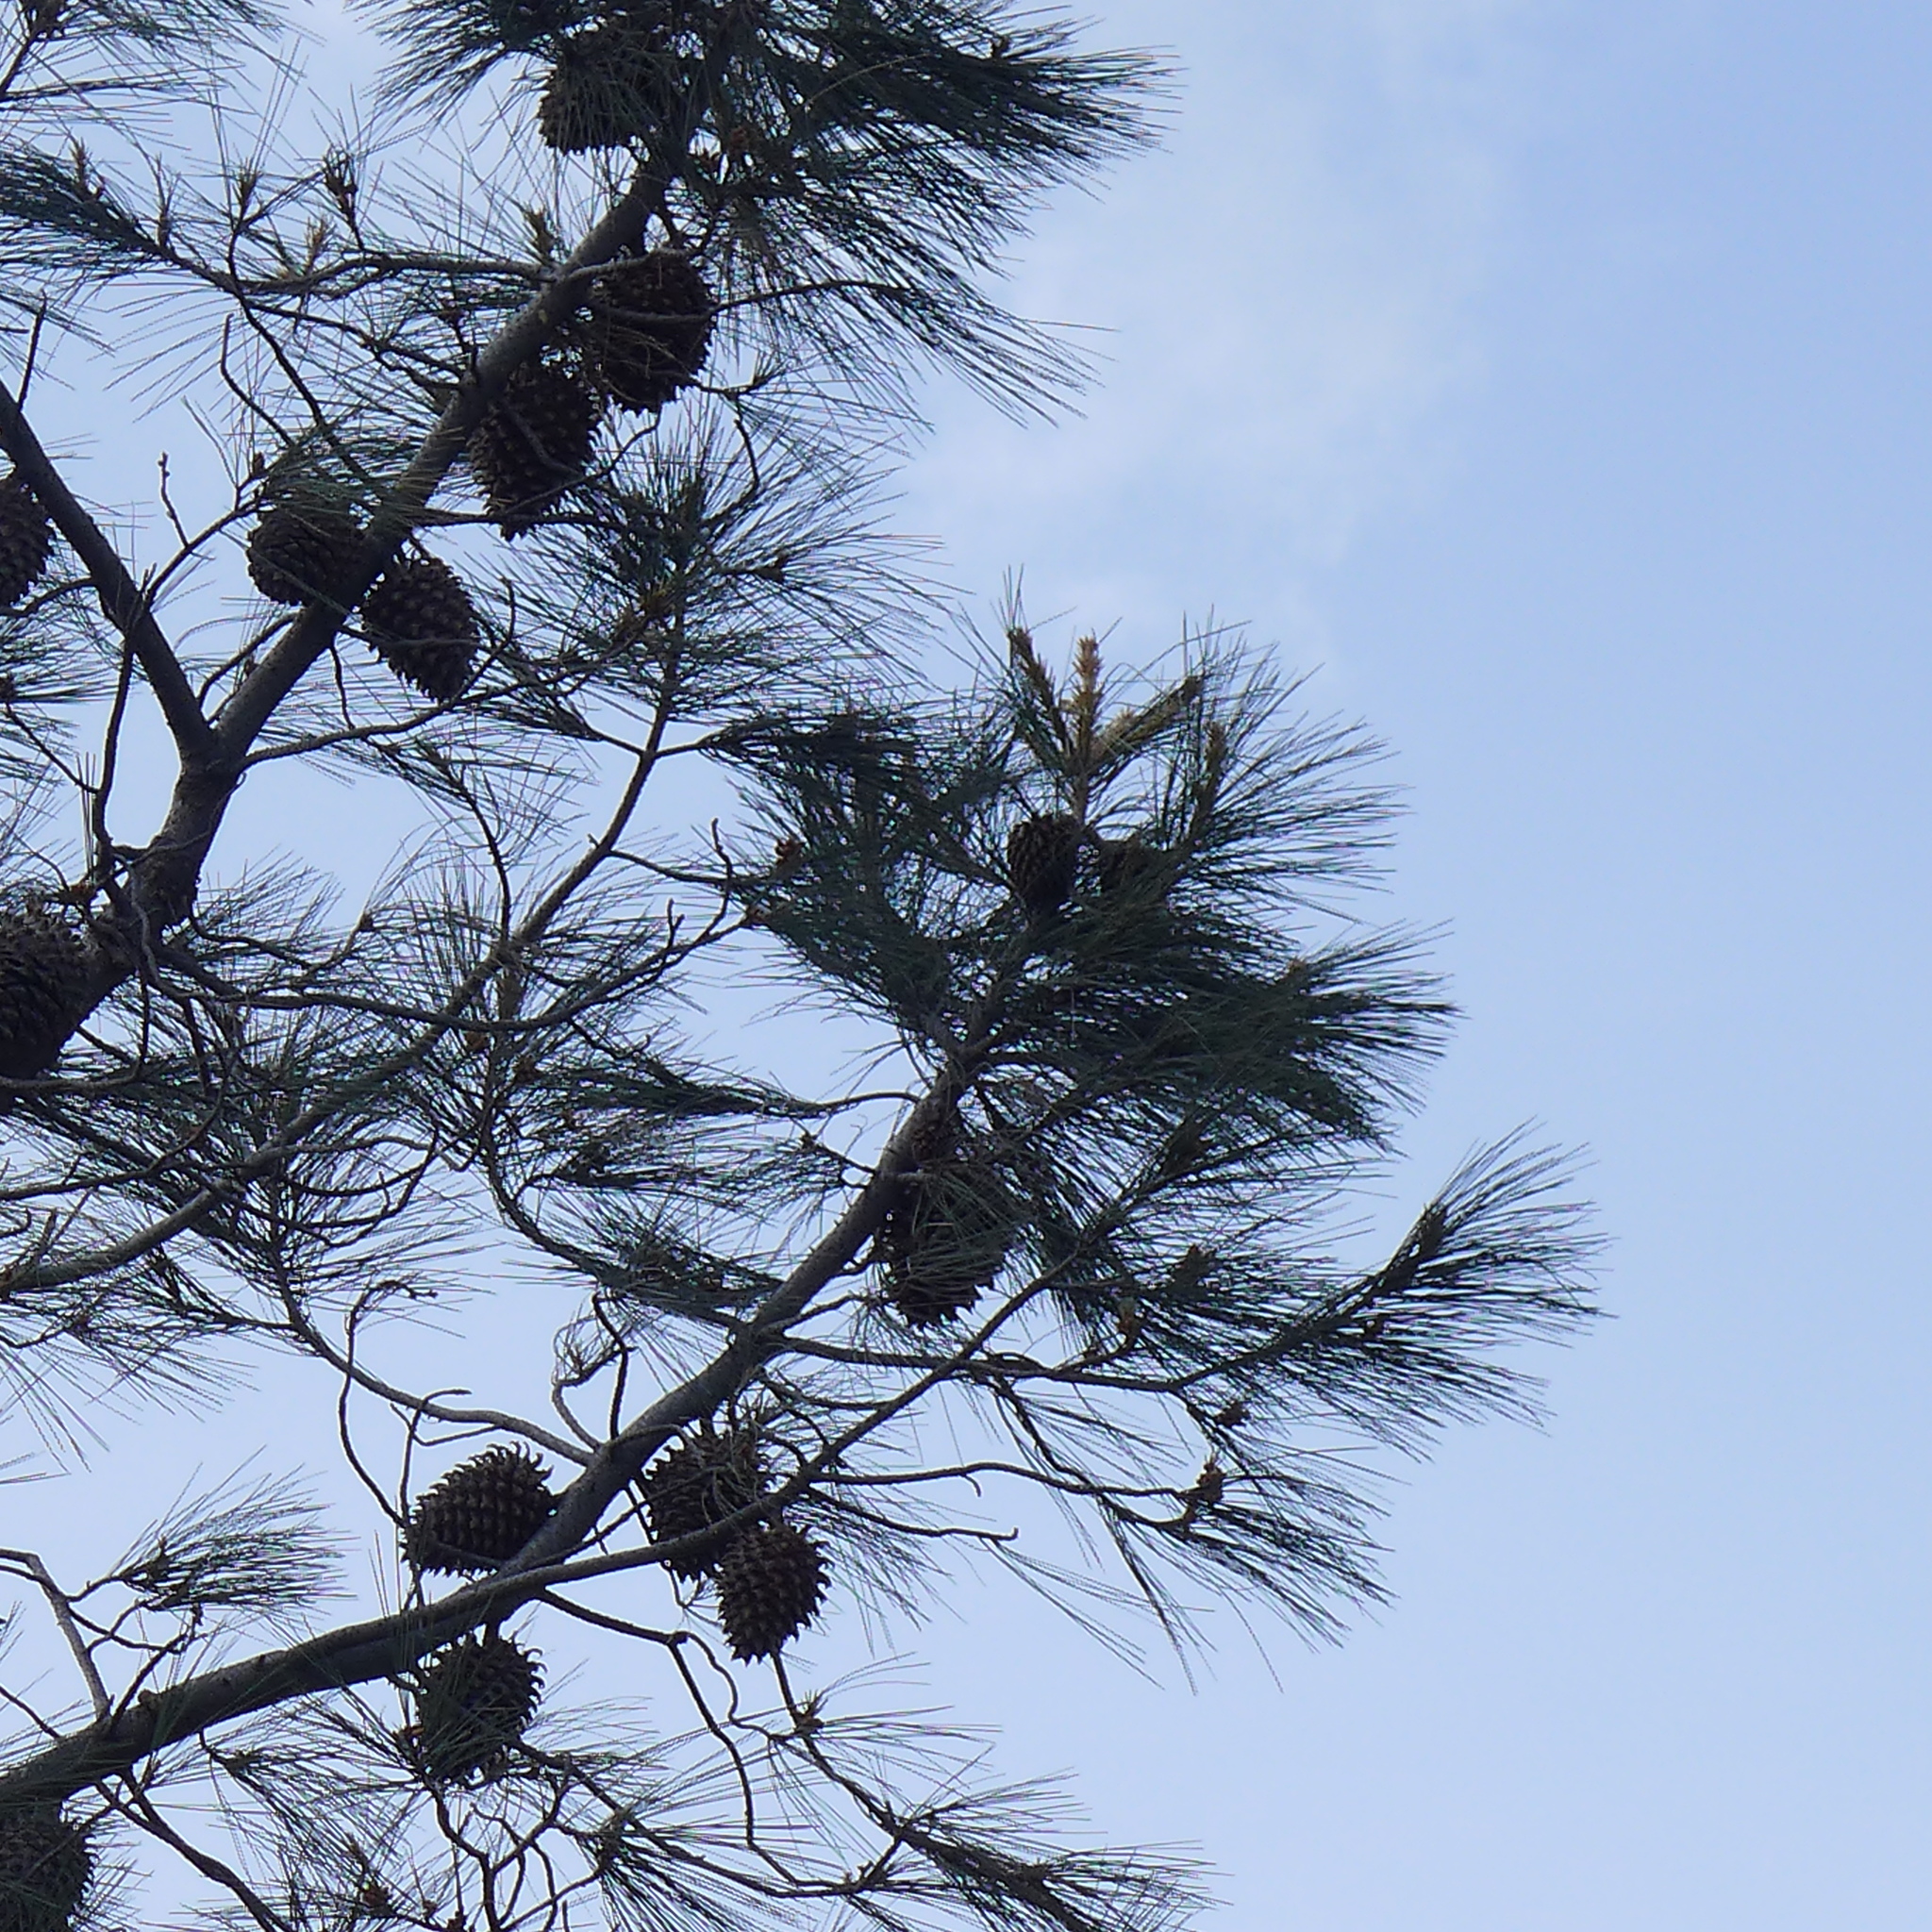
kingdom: Plantae
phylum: Tracheophyta
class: Pinopsida
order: Pinales
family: Pinaceae
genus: Pinus
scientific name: Pinus sabiniana
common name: Bull pine
